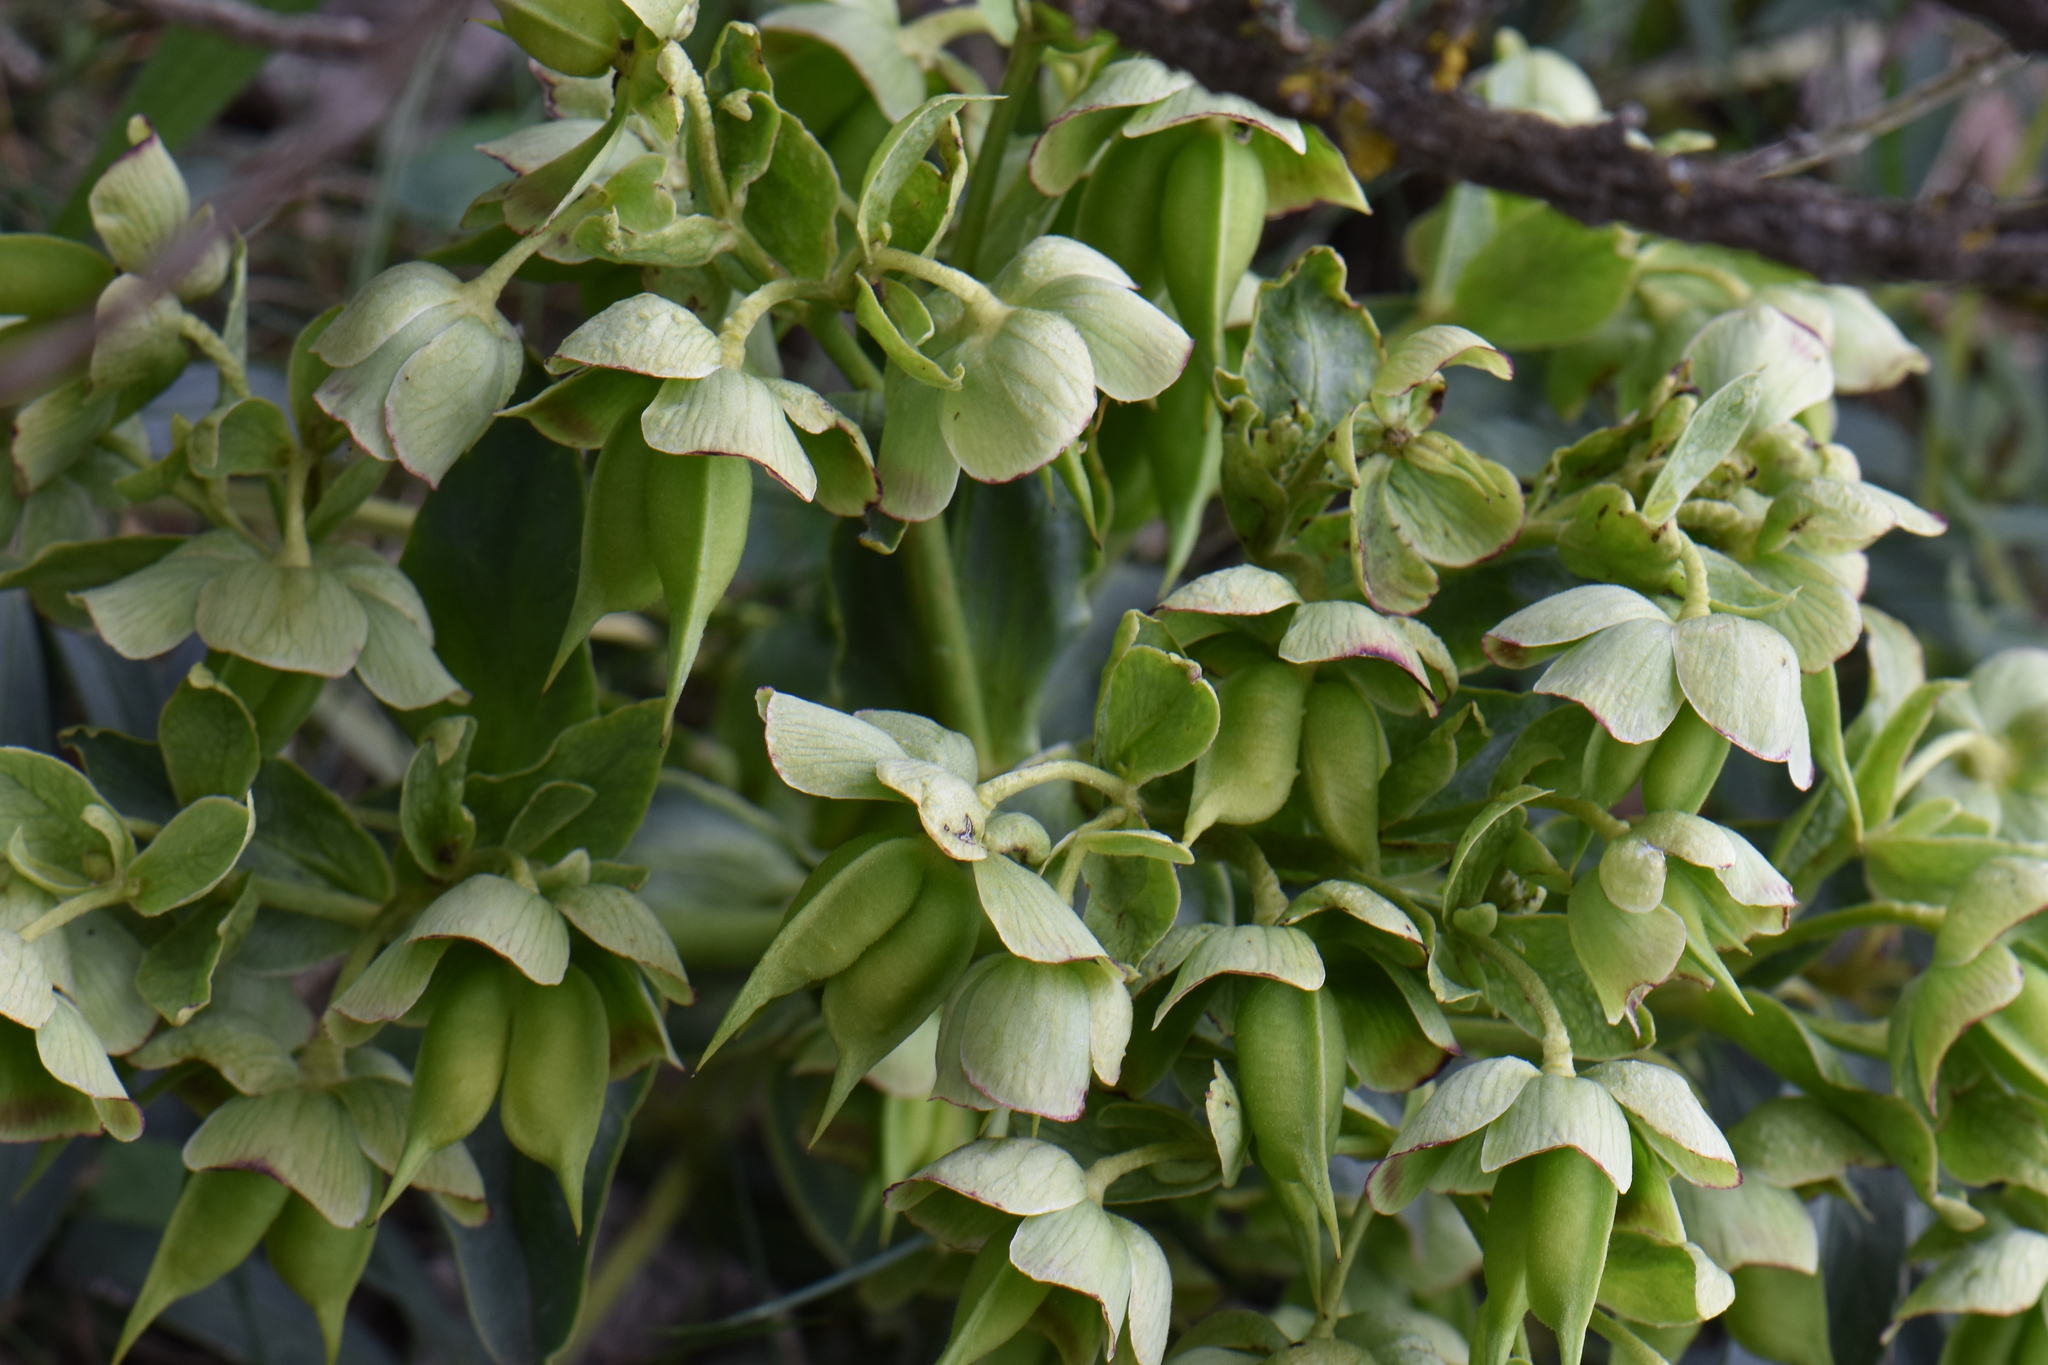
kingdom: Plantae
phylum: Tracheophyta
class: Magnoliopsida
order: Ranunculales
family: Ranunculaceae
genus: Helleborus
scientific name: Helleborus foetidus
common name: Stinking hellebore
